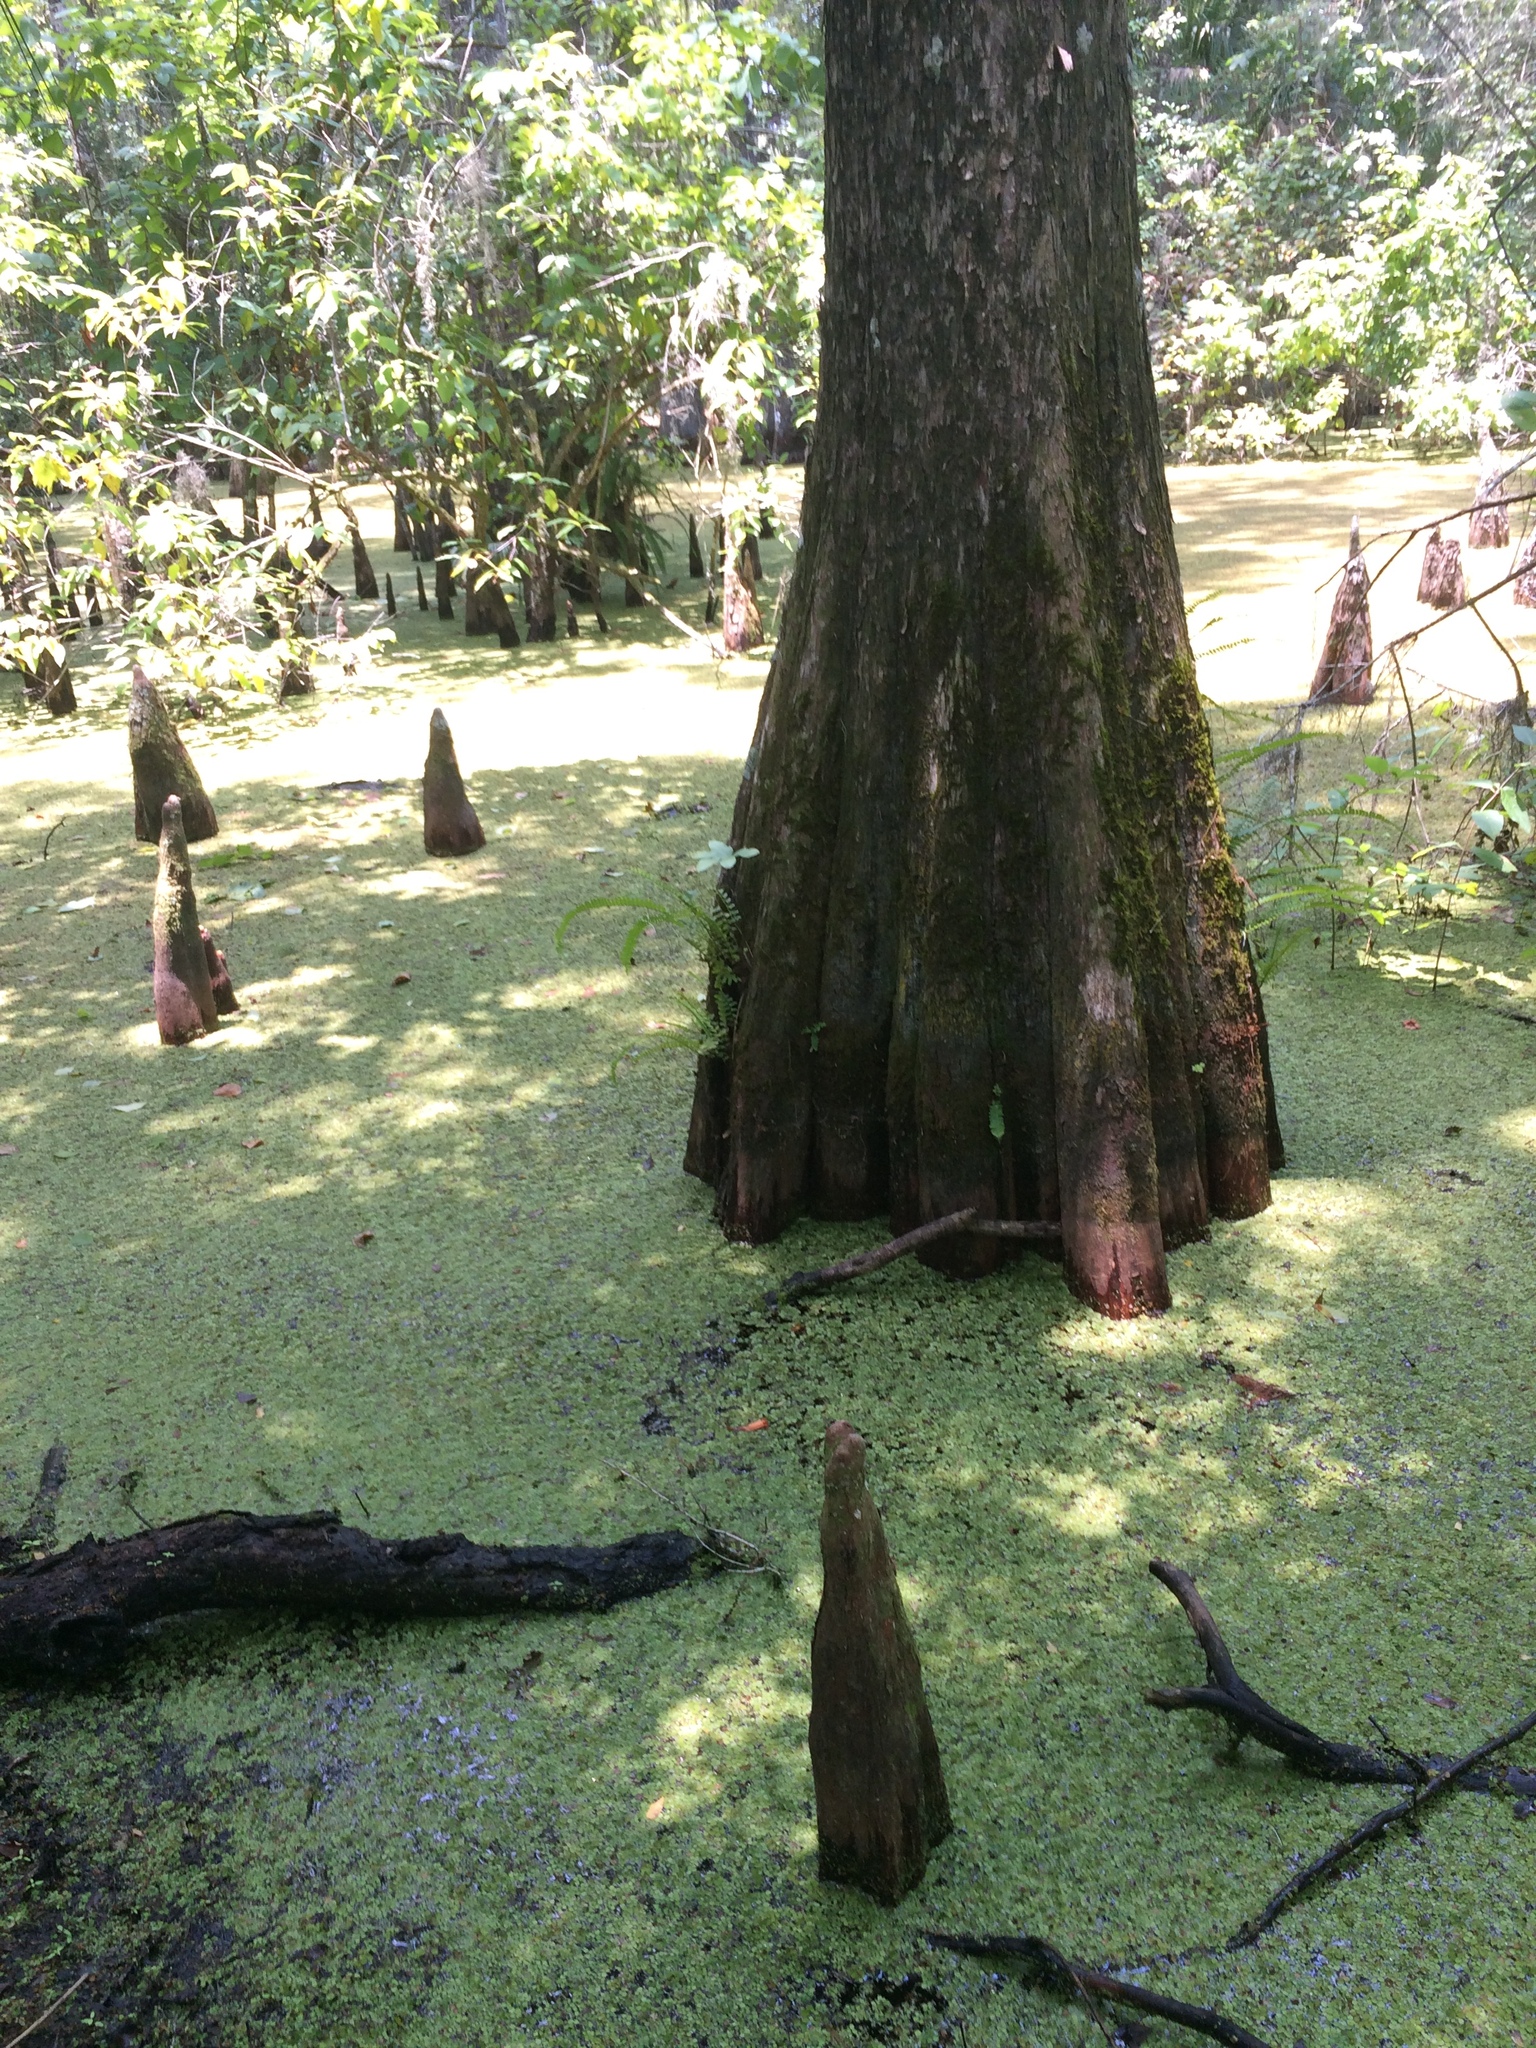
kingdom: Plantae
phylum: Tracheophyta
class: Pinopsida
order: Pinales
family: Cupressaceae
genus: Taxodium
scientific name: Taxodium distichum
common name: Bald cypress
